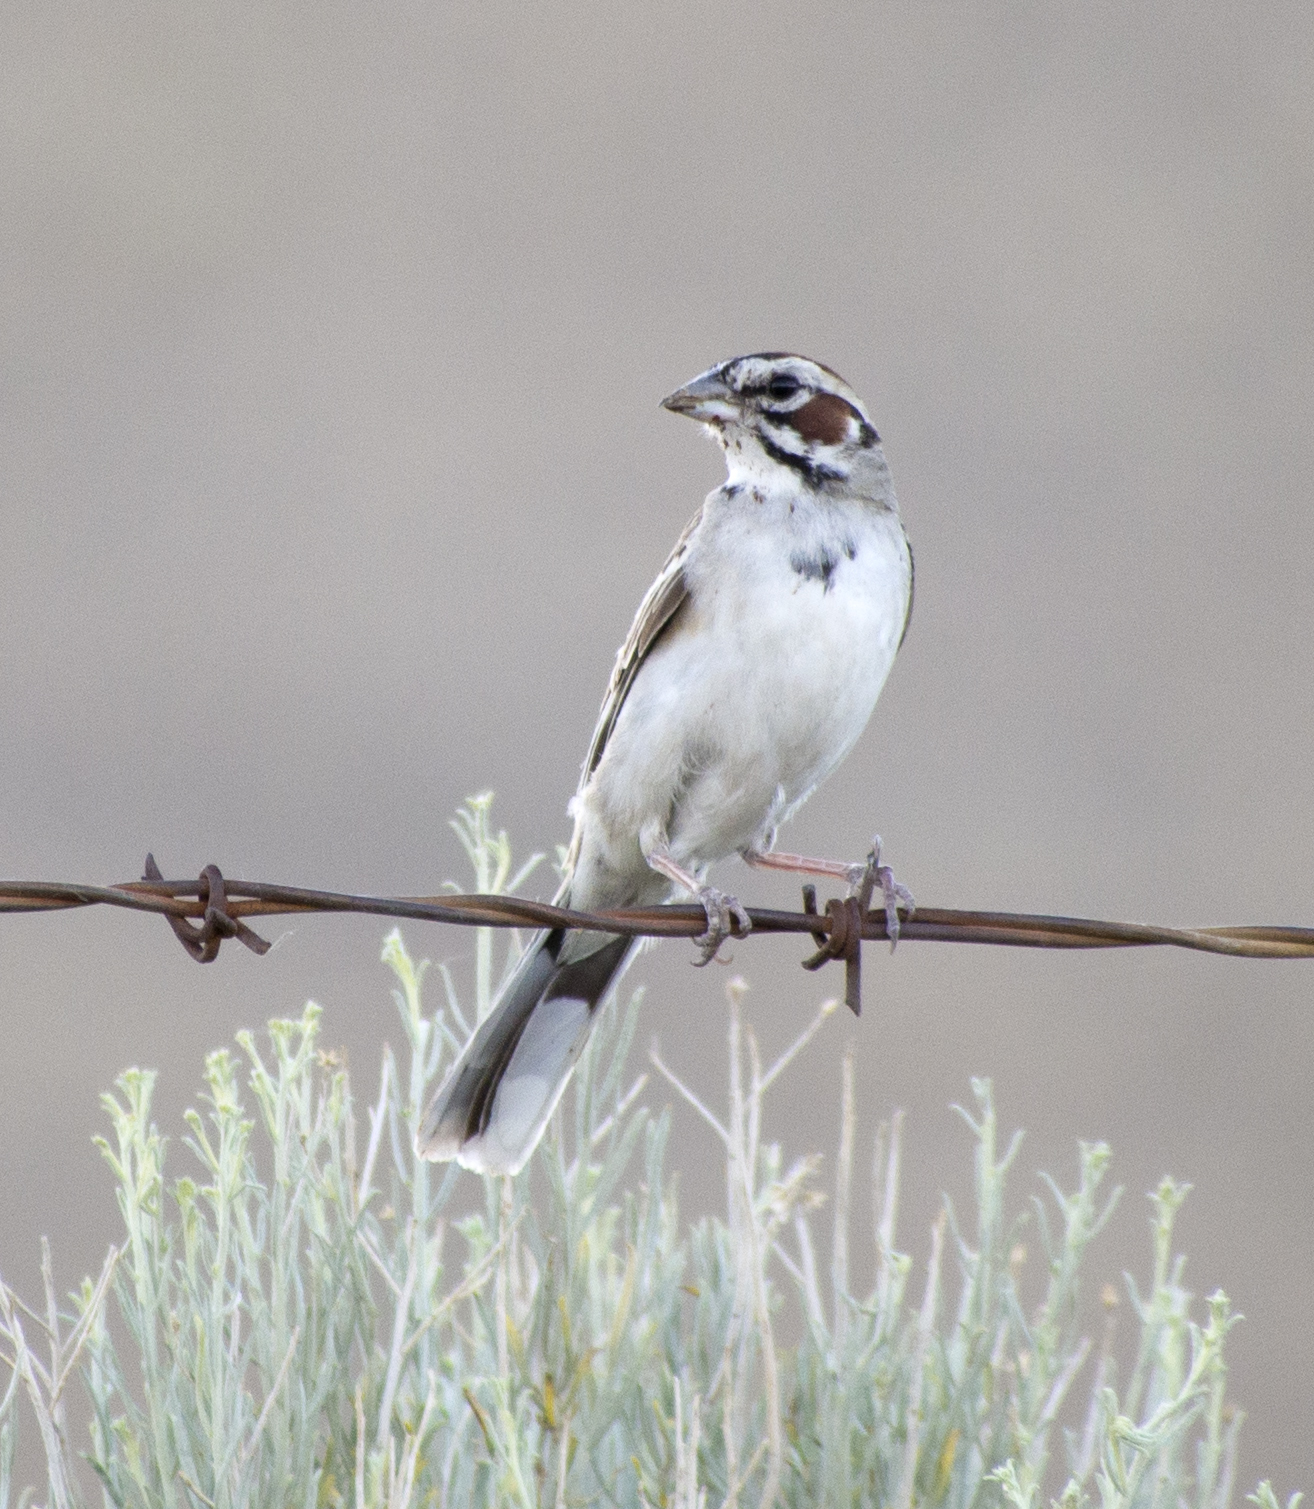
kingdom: Animalia
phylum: Chordata
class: Aves
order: Passeriformes
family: Passerellidae
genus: Chondestes
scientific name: Chondestes grammacus
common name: Lark sparrow
